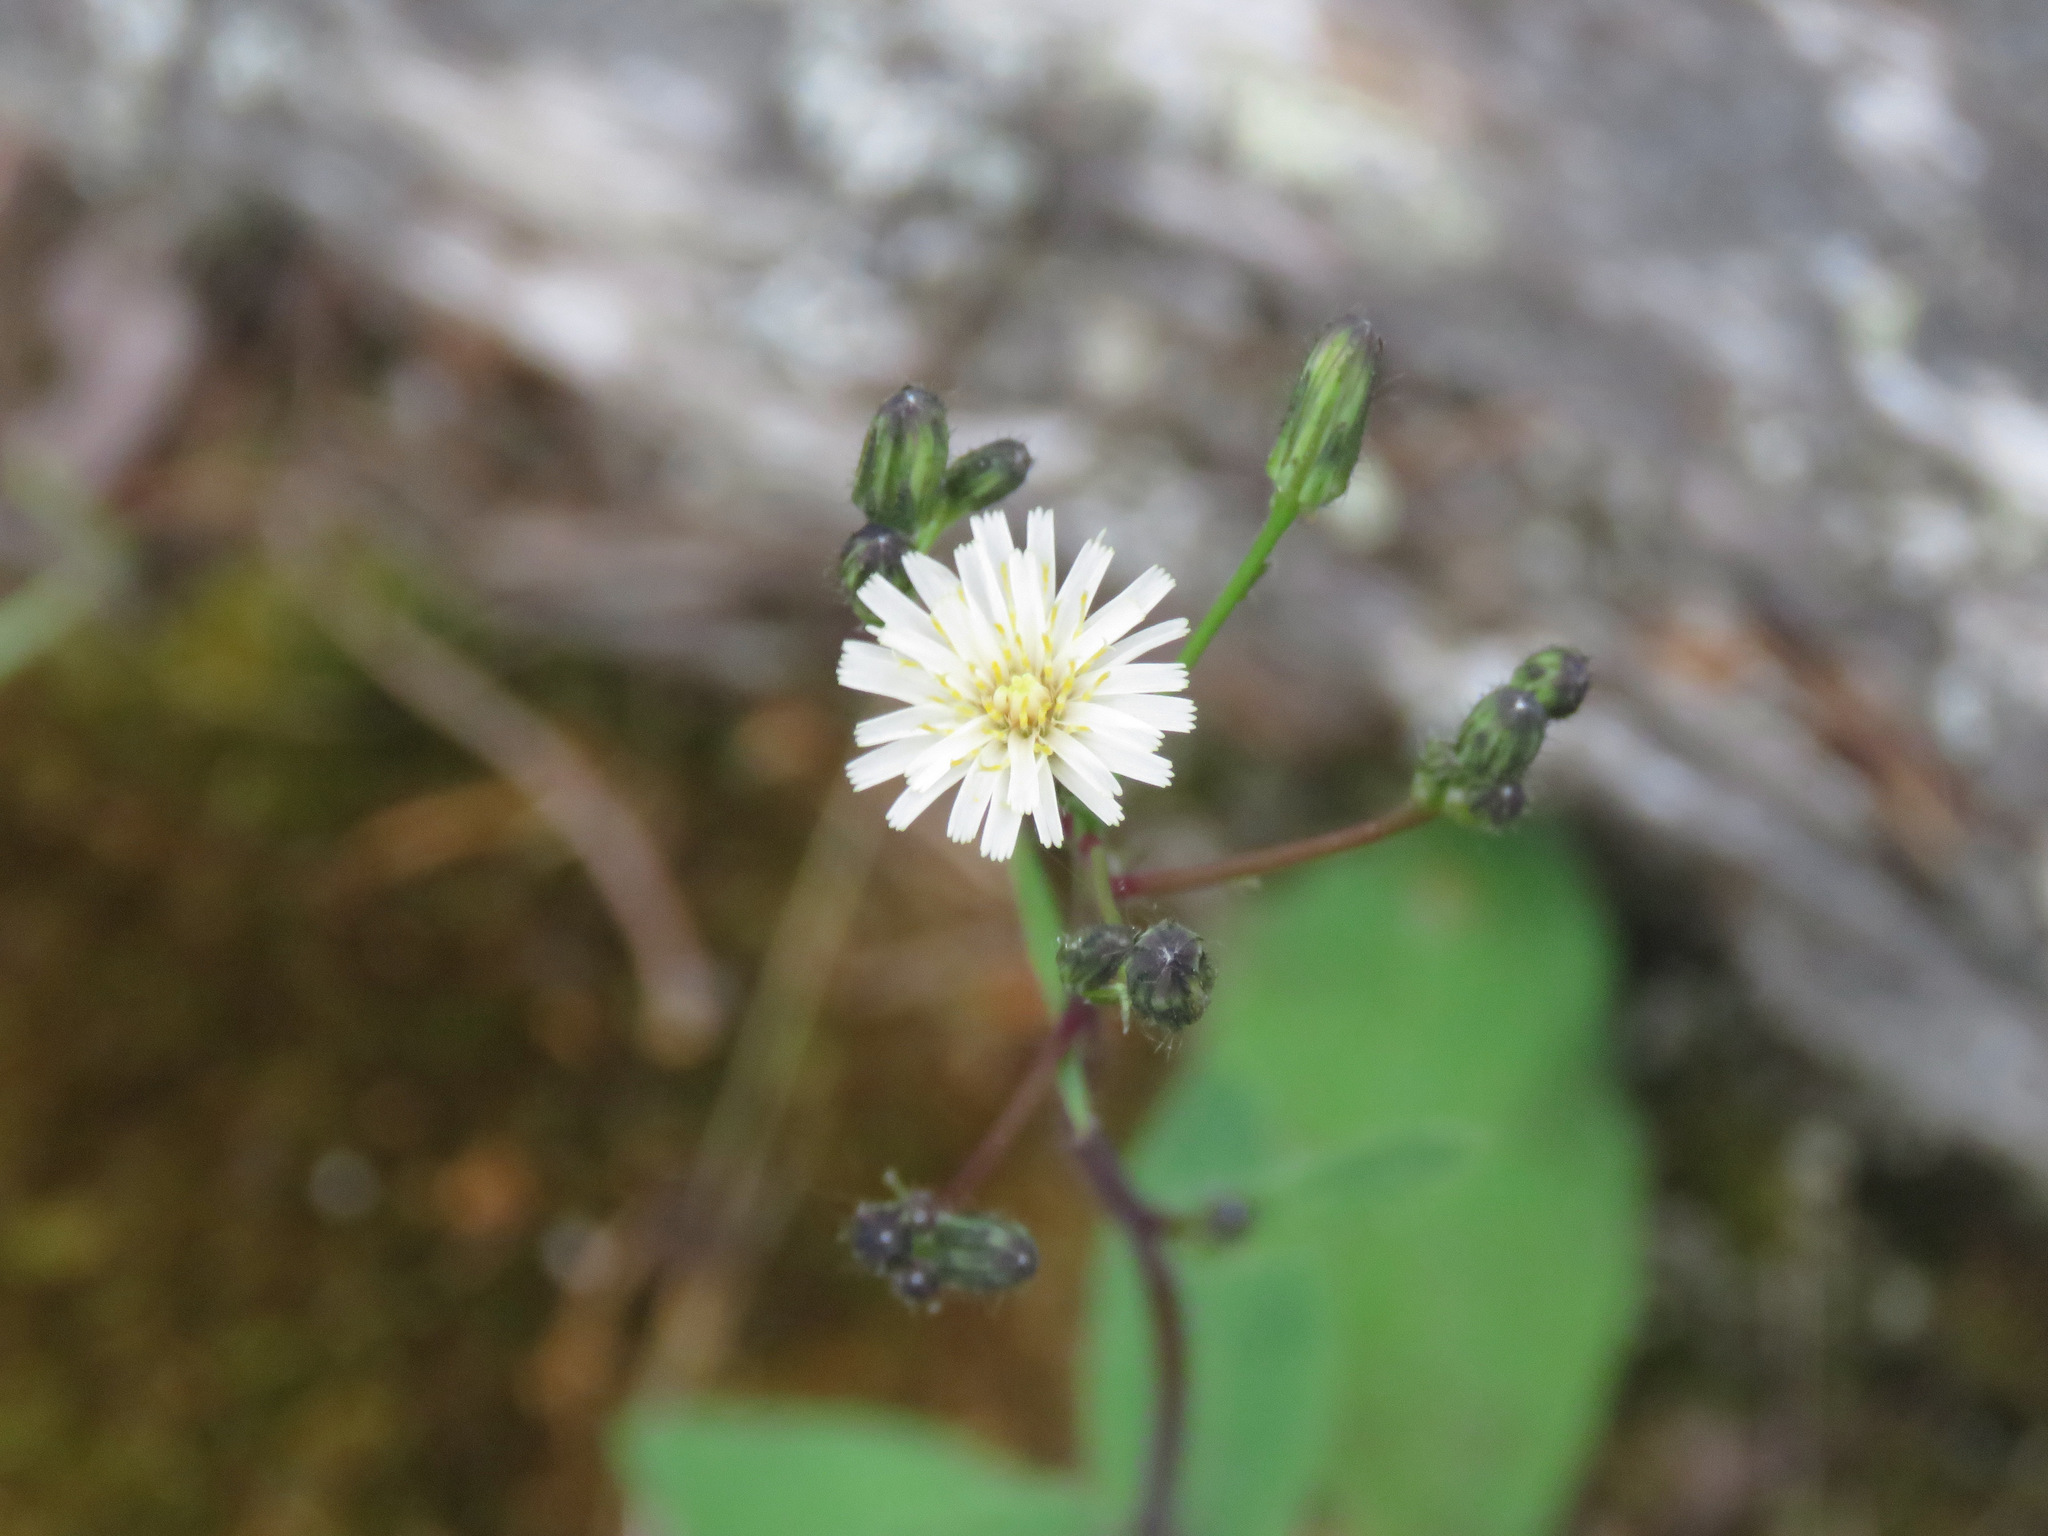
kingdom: Plantae
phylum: Tracheophyta
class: Magnoliopsida
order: Asterales
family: Asteraceae
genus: Hieracium
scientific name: Hieracium albiflorum
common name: White hawkweed
